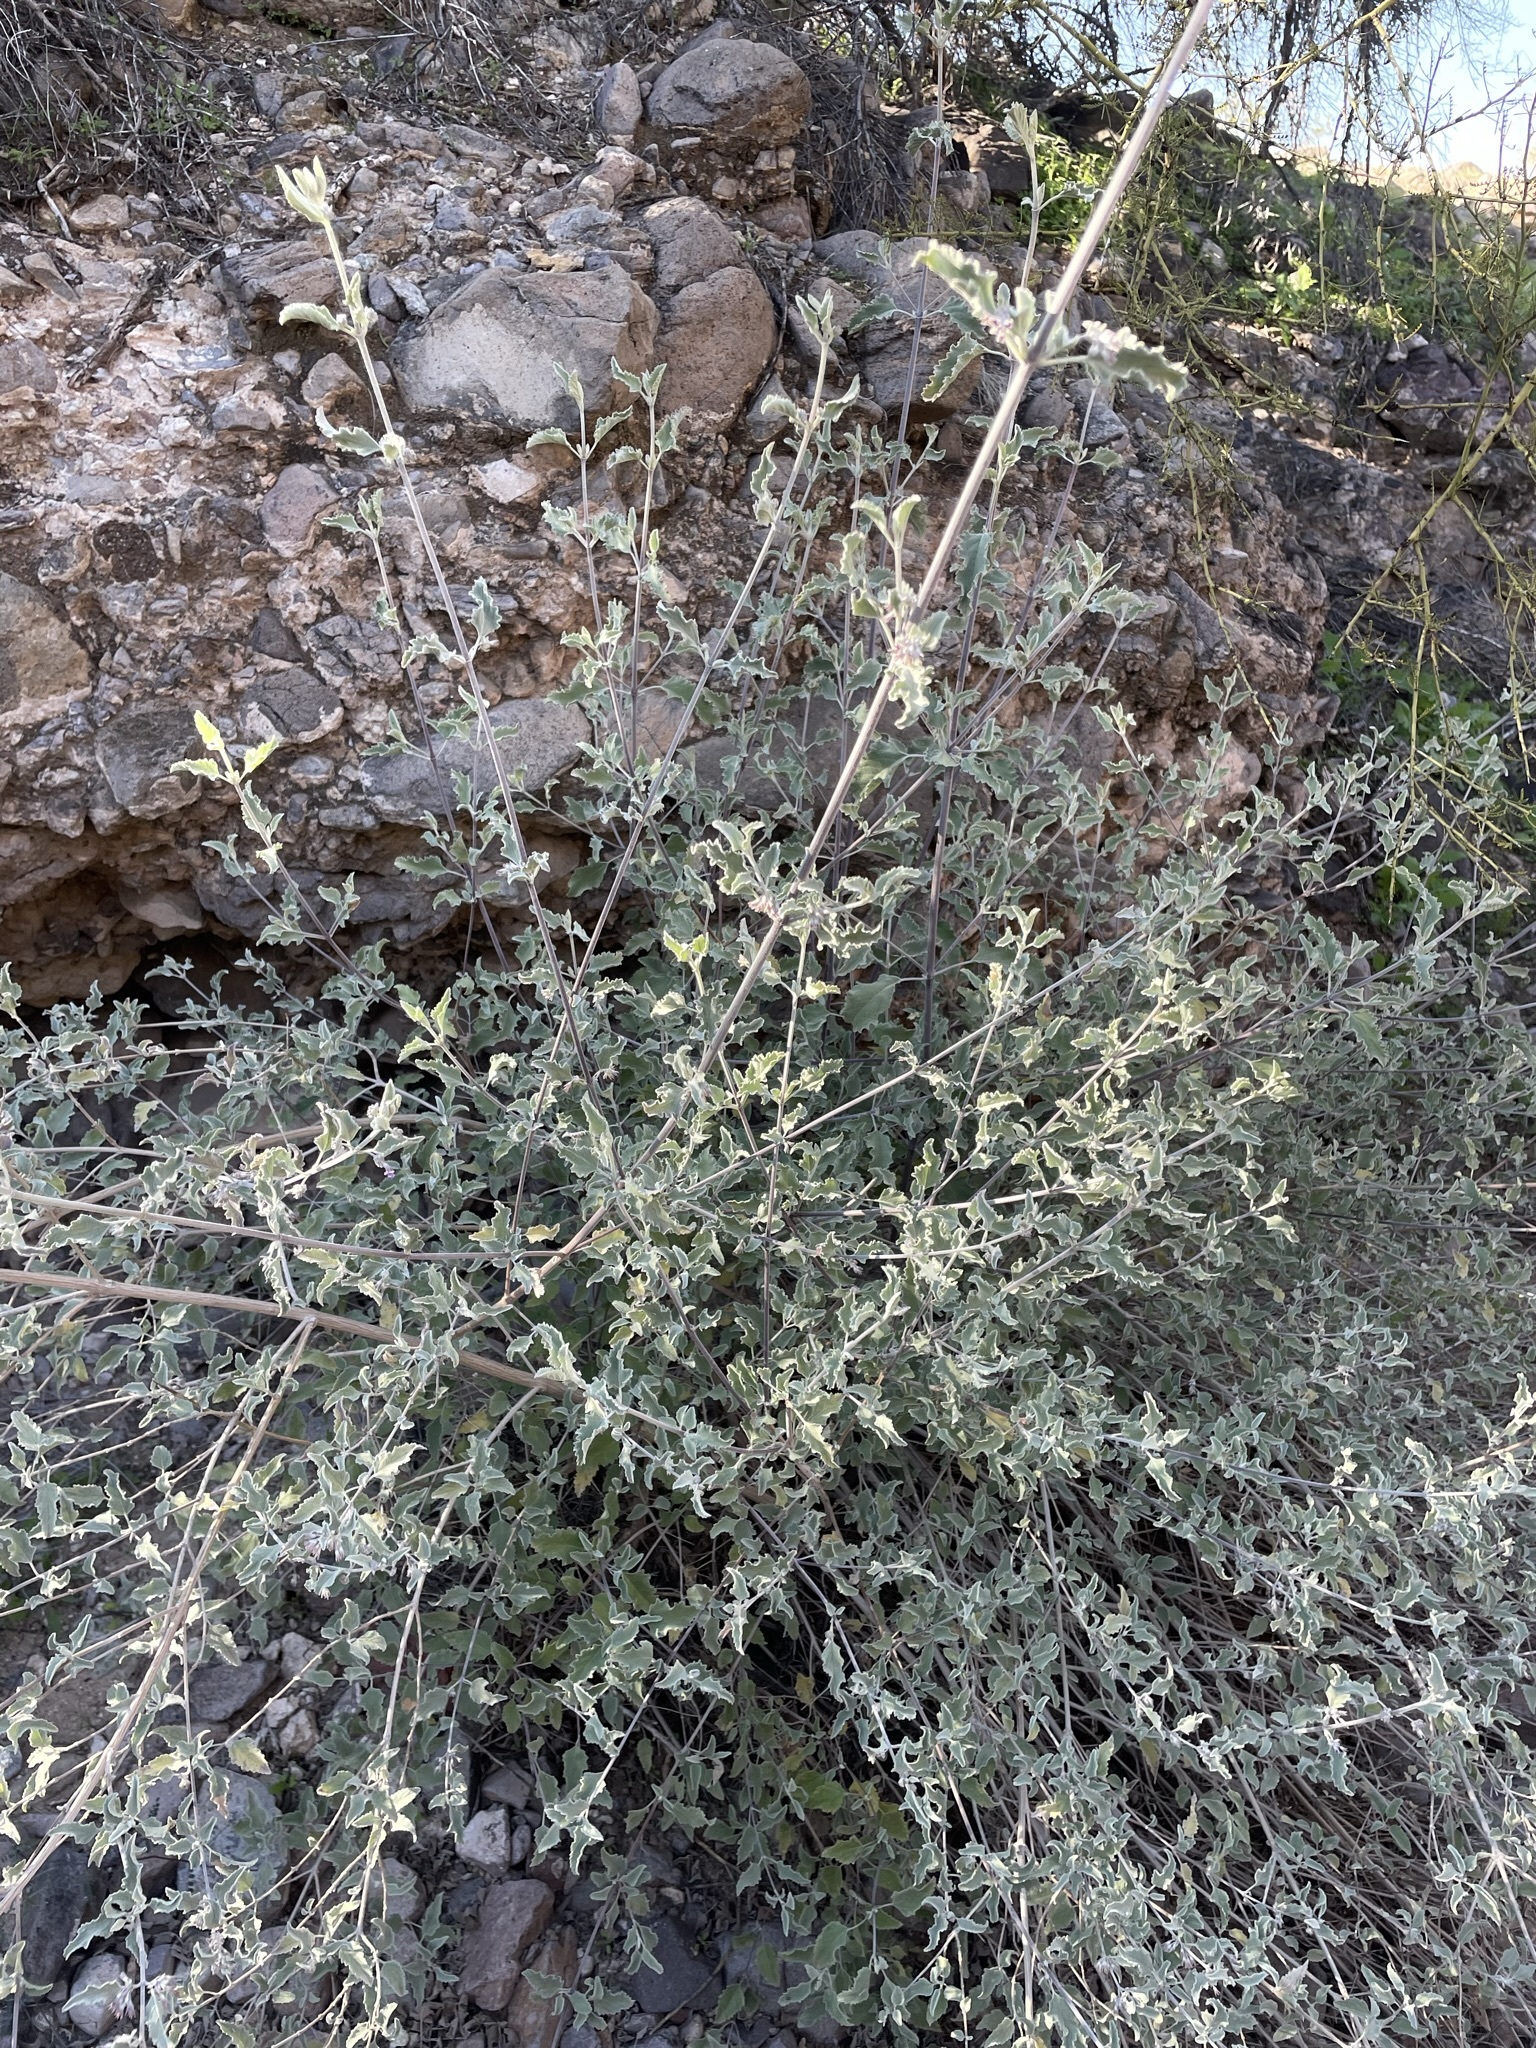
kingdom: Plantae
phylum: Tracheophyta
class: Magnoliopsida
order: Lamiales
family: Lamiaceae
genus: Condea
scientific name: Condea emoryi
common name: Chia
